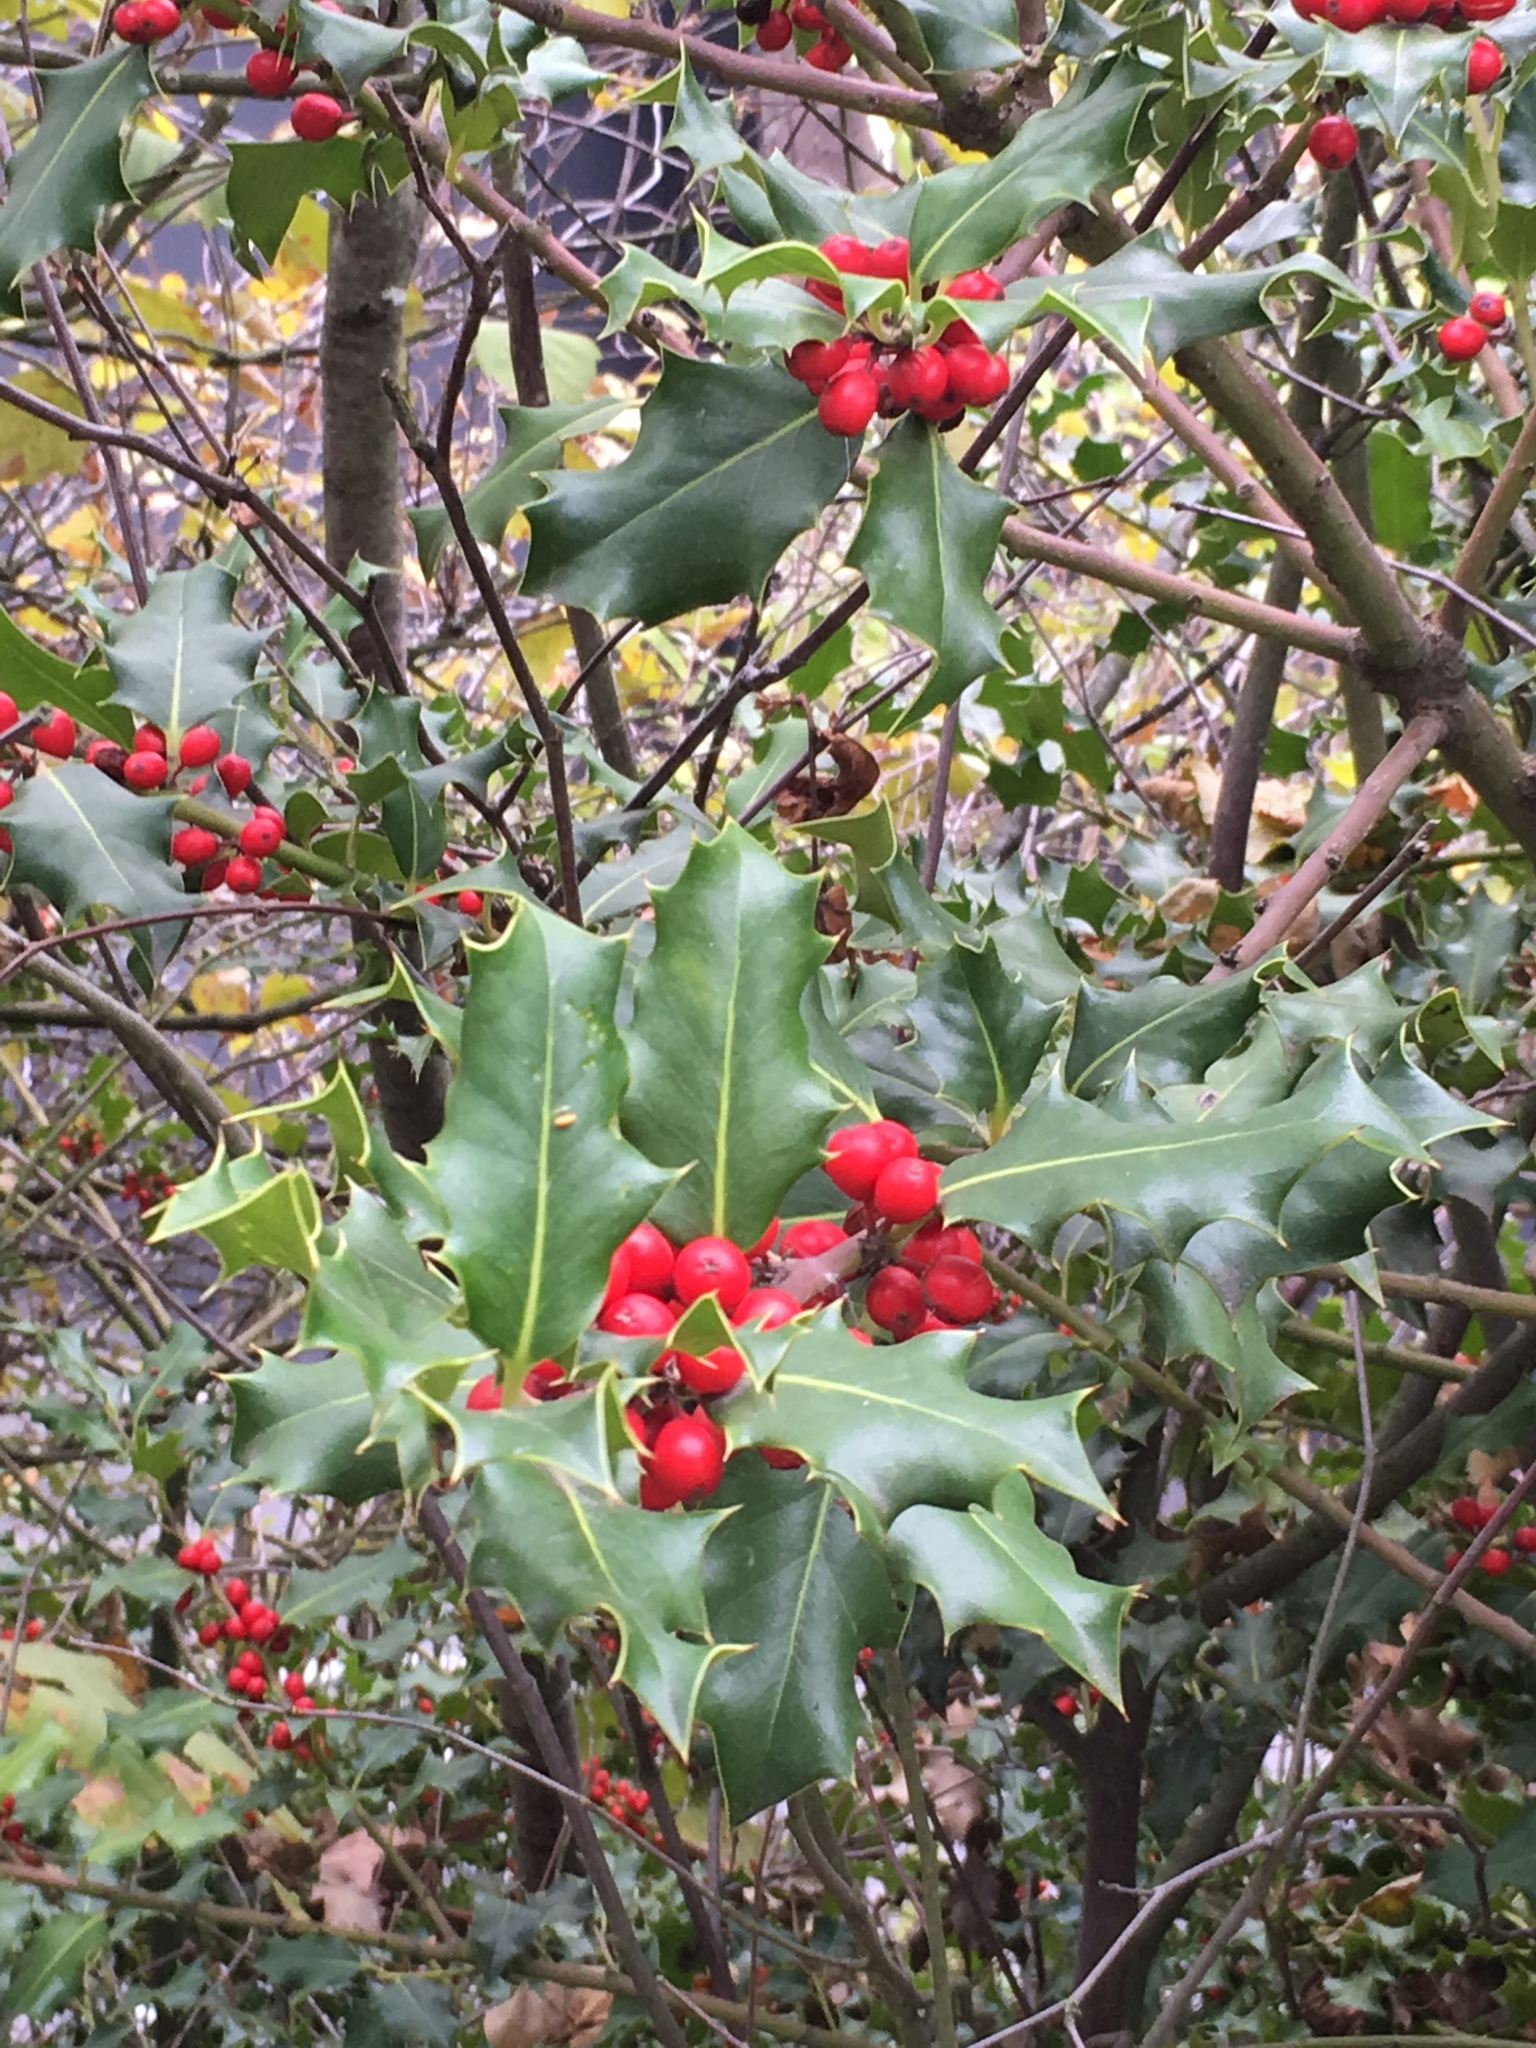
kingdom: Plantae
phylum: Tracheophyta
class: Magnoliopsida
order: Aquifoliales
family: Aquifoliaceae
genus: Ilex
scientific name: Ilex aquifolium
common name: English holly
